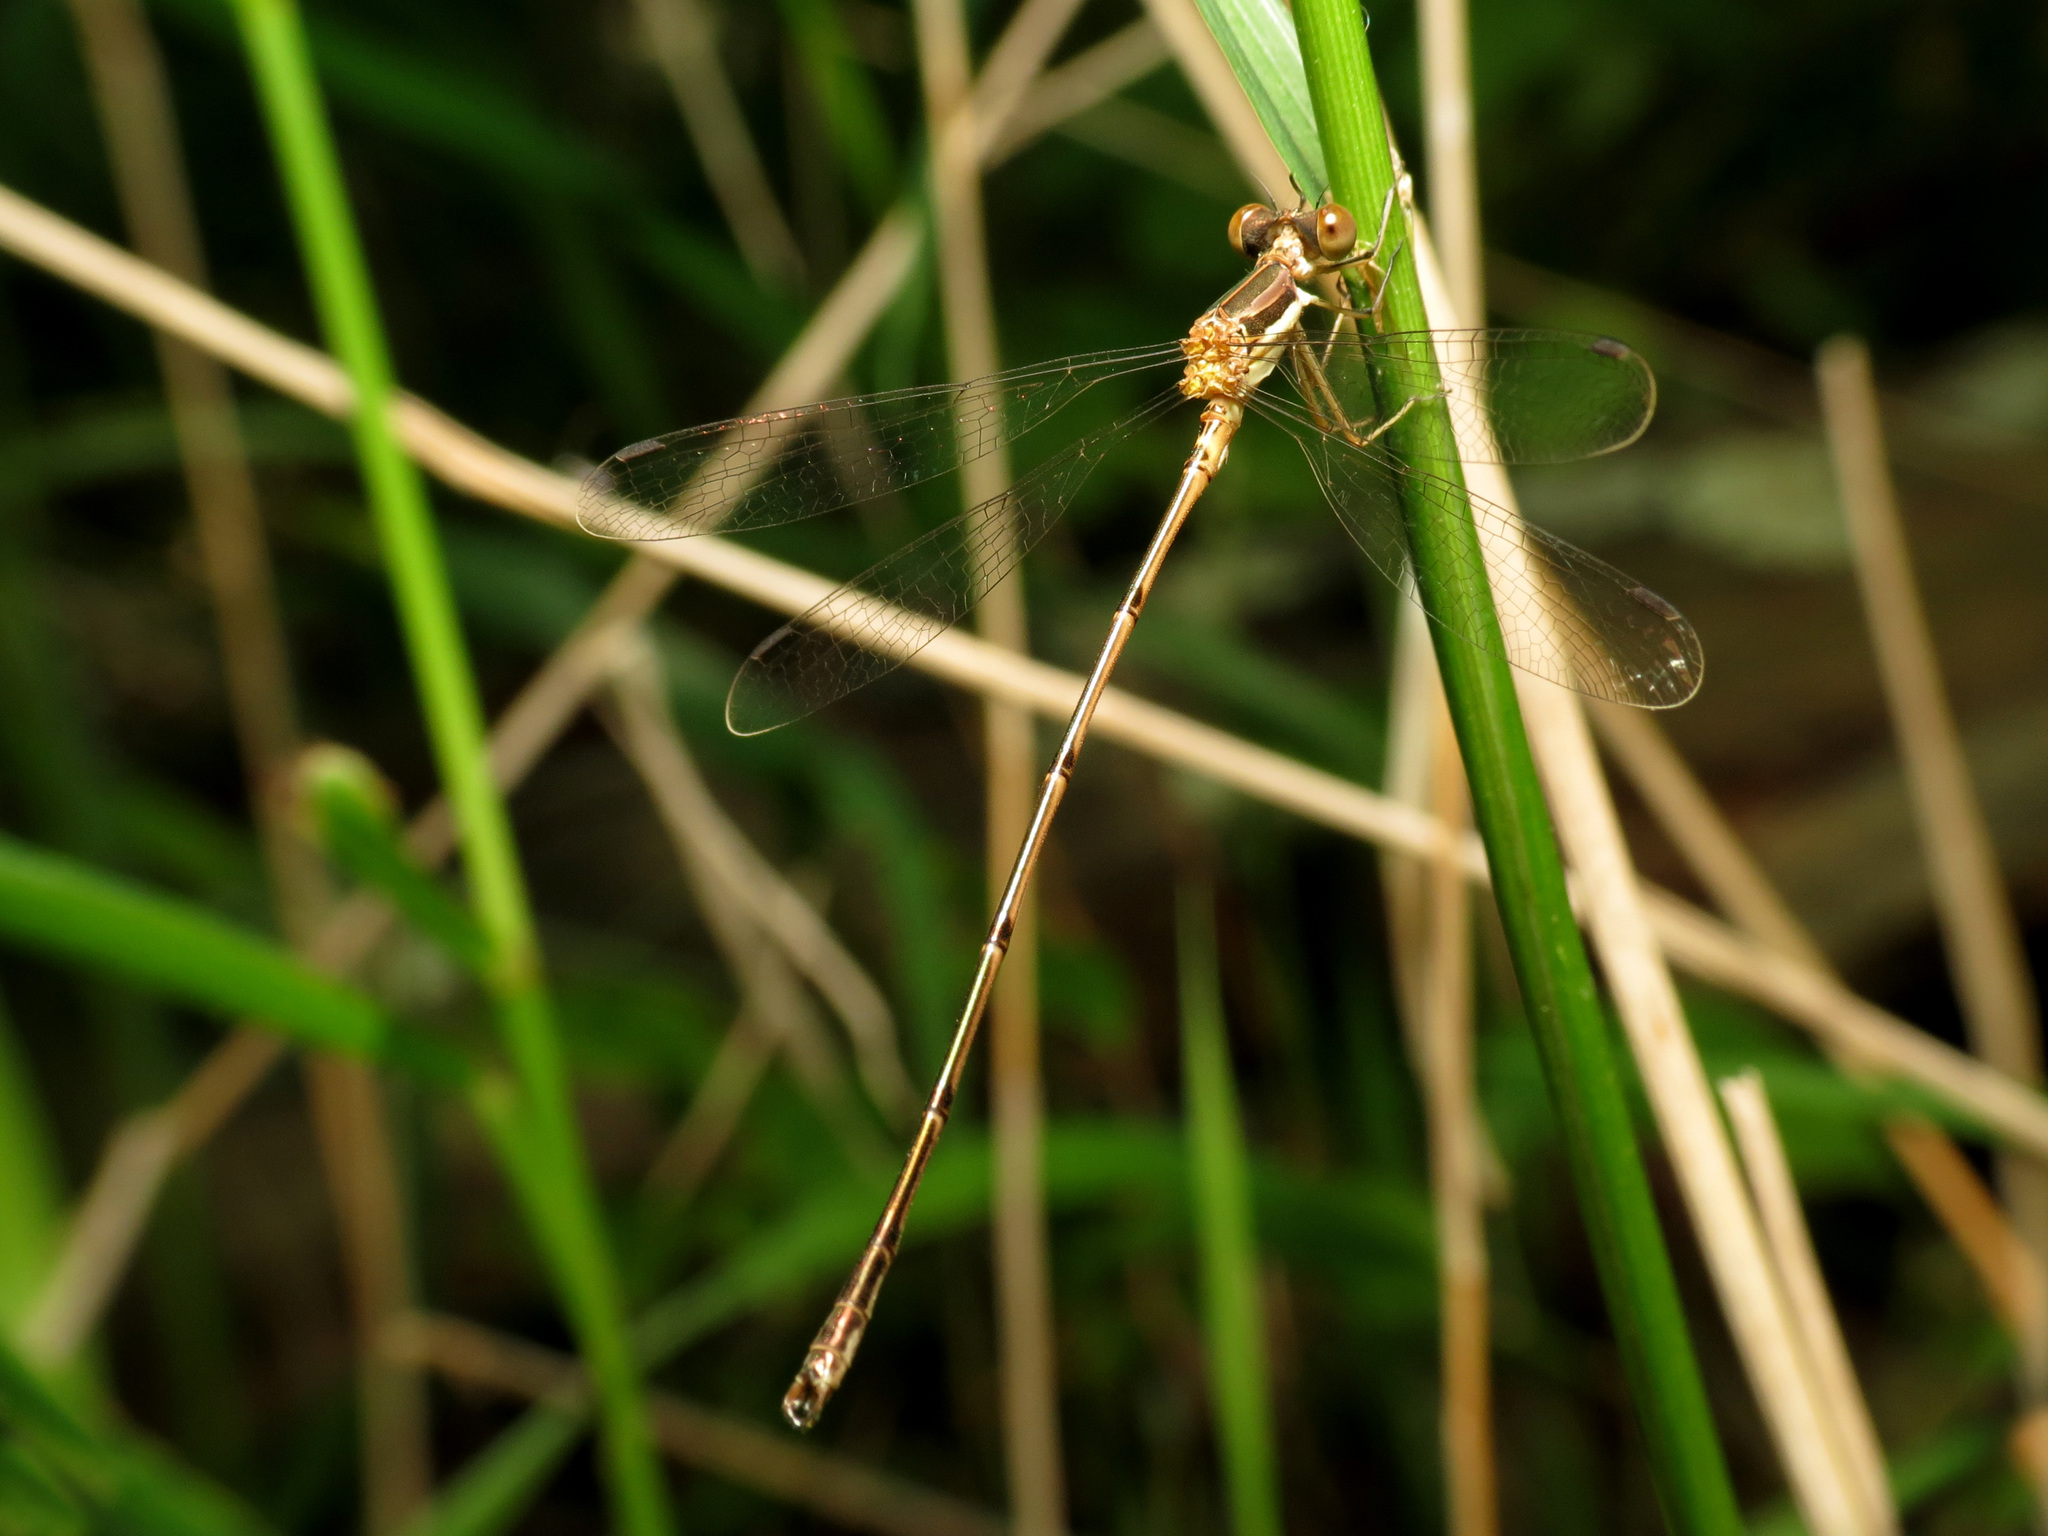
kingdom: Animalia
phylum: Arthropoda
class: Insecta
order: Odonata
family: Lestidae
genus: Lestes
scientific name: Lestes rectangularis
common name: Slender spreadwing
